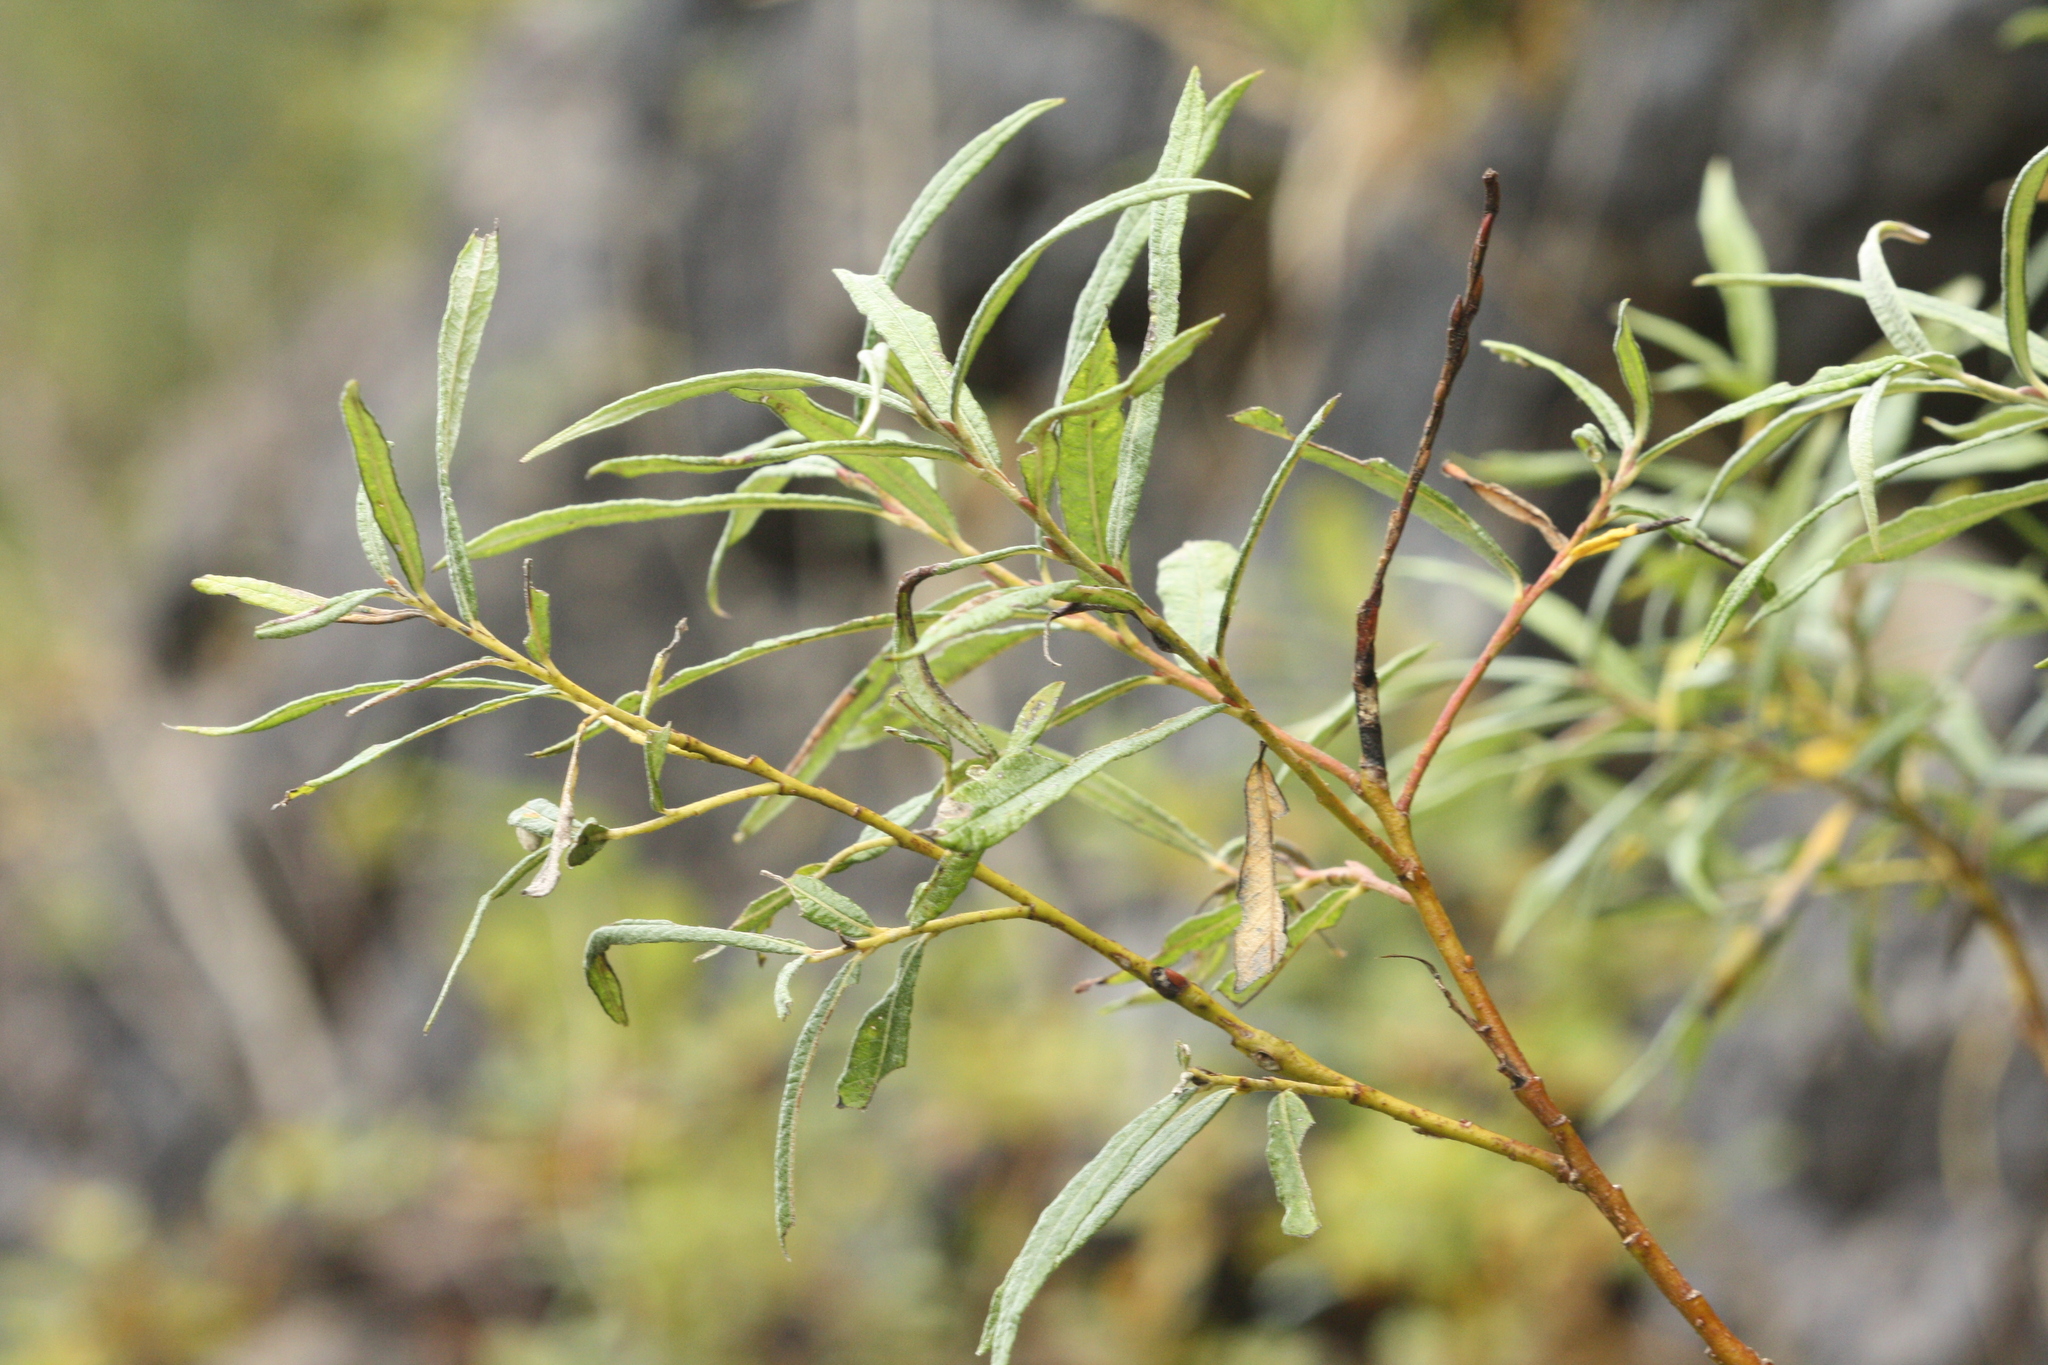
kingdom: Animalia
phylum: Arthropoda
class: Insecta
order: Hymenoptera
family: Tenthredinidae
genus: Euura
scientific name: Euura kriechbaumeri
